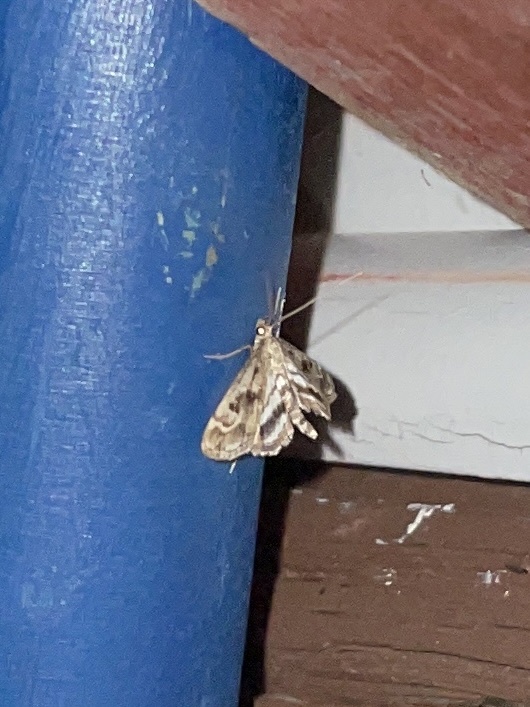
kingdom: Animalia
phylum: Arthropoda
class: Insecta
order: Lepidoptera
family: Crambidae
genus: Parapoynx
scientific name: Parapoynx obscuralis
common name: American china-mark
